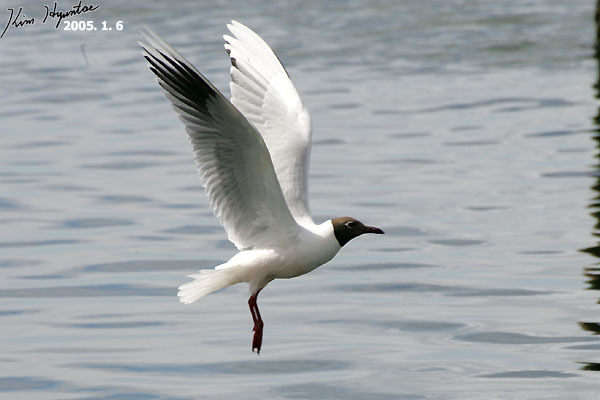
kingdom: Animalia
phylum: Chordata
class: Aves
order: Charadriiformes
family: Laridae
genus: Chroicocephalus
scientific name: Chroicocephalus maculipennis
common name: Brown-hooded gull
